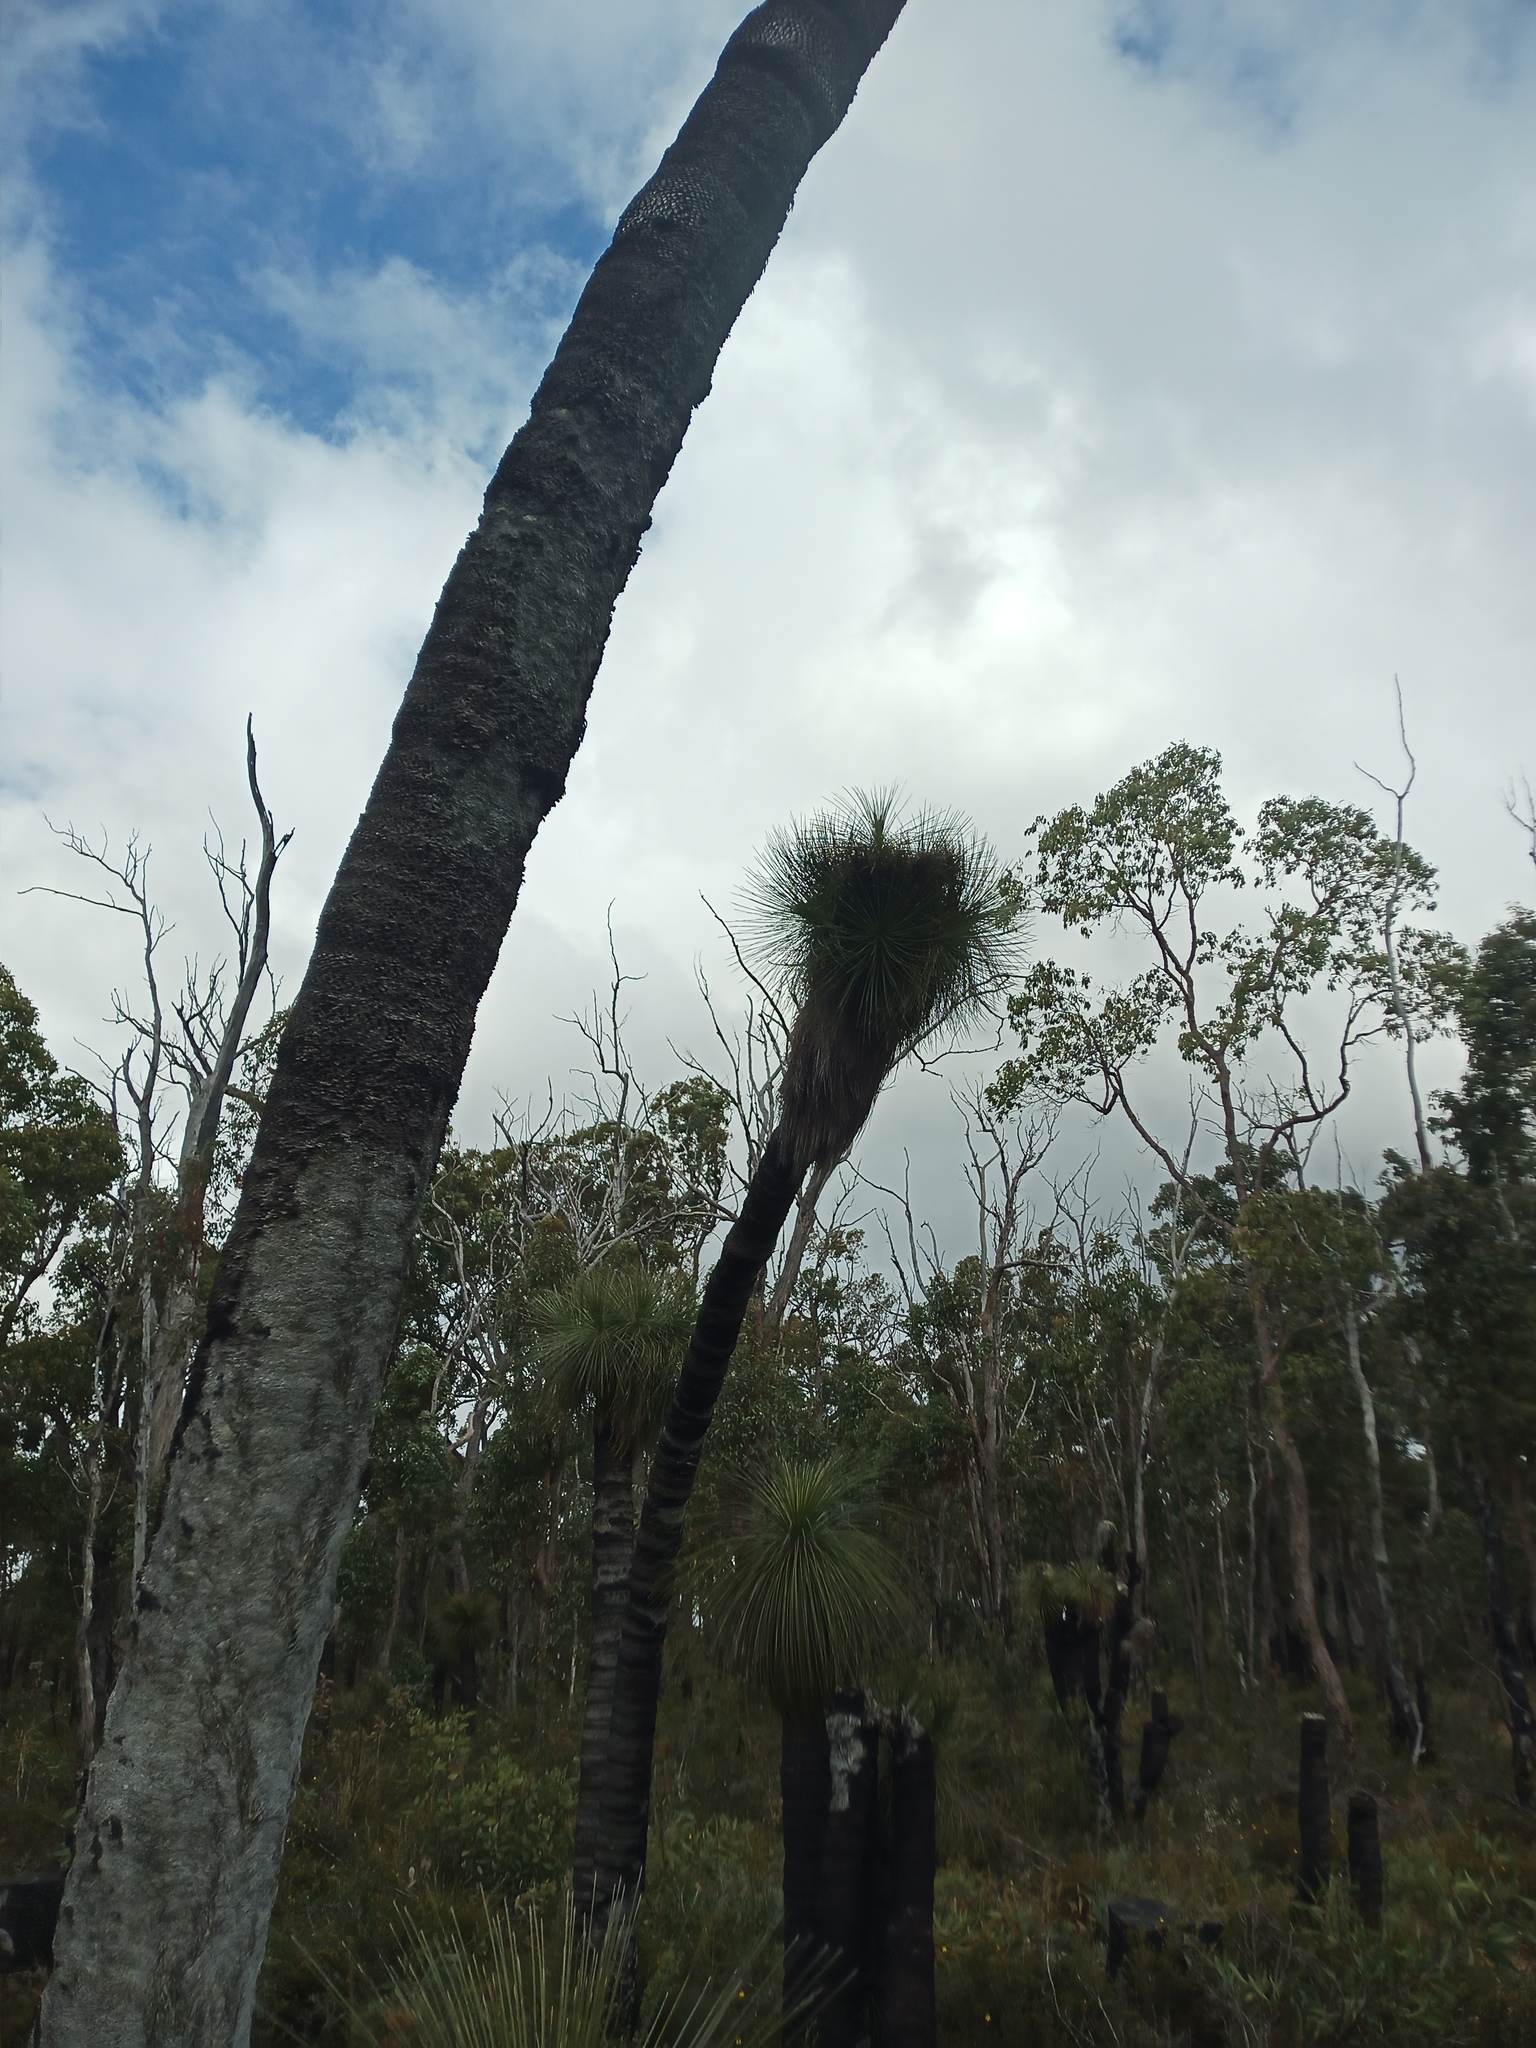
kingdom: Plantae
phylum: Tracheophyta
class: Liliopsida
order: Arecales
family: Dasypogonaceae
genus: Kingia
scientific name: Kingia australis
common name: Black gin
